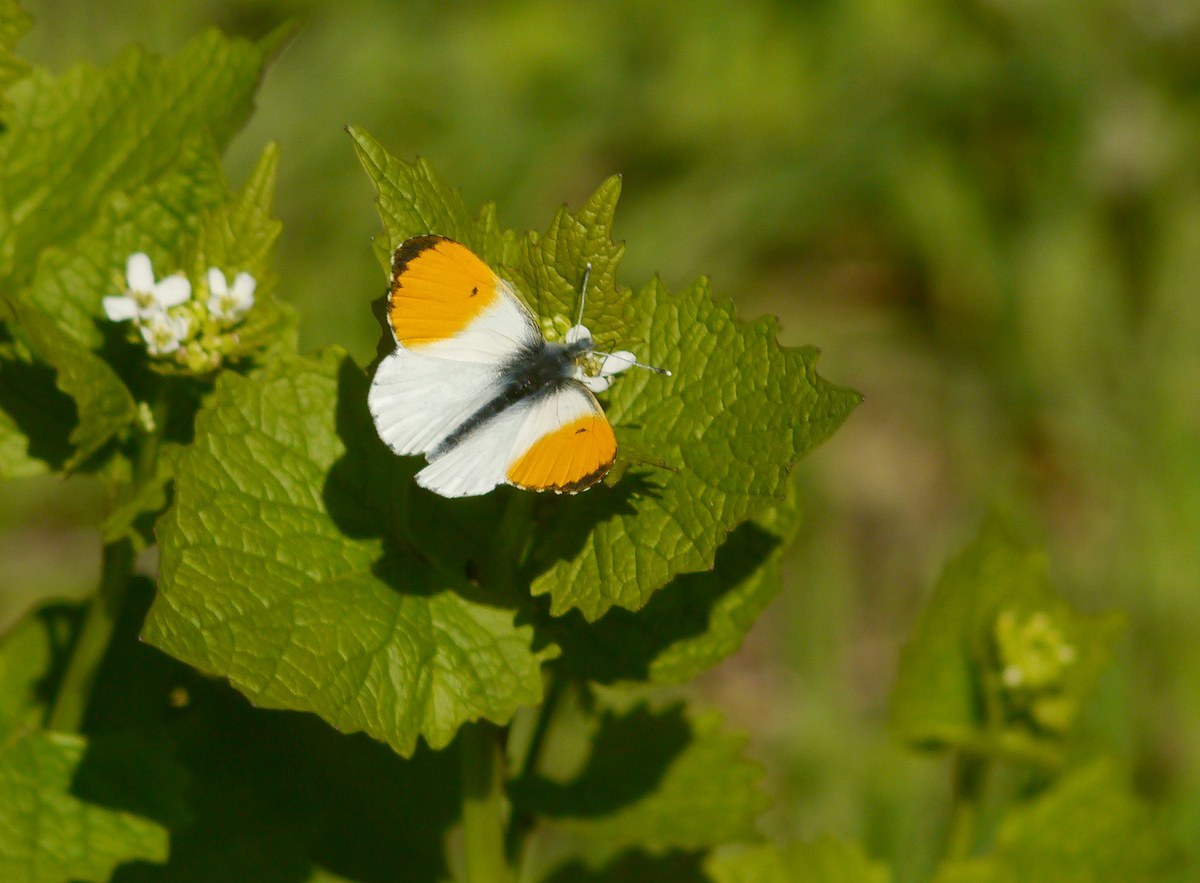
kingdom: Animalia
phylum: Arthropoda
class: Insecta
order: Lepidoptera
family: Pieridae
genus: Anthocharis
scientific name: Anthocharis cardamines
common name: Orange-tip
